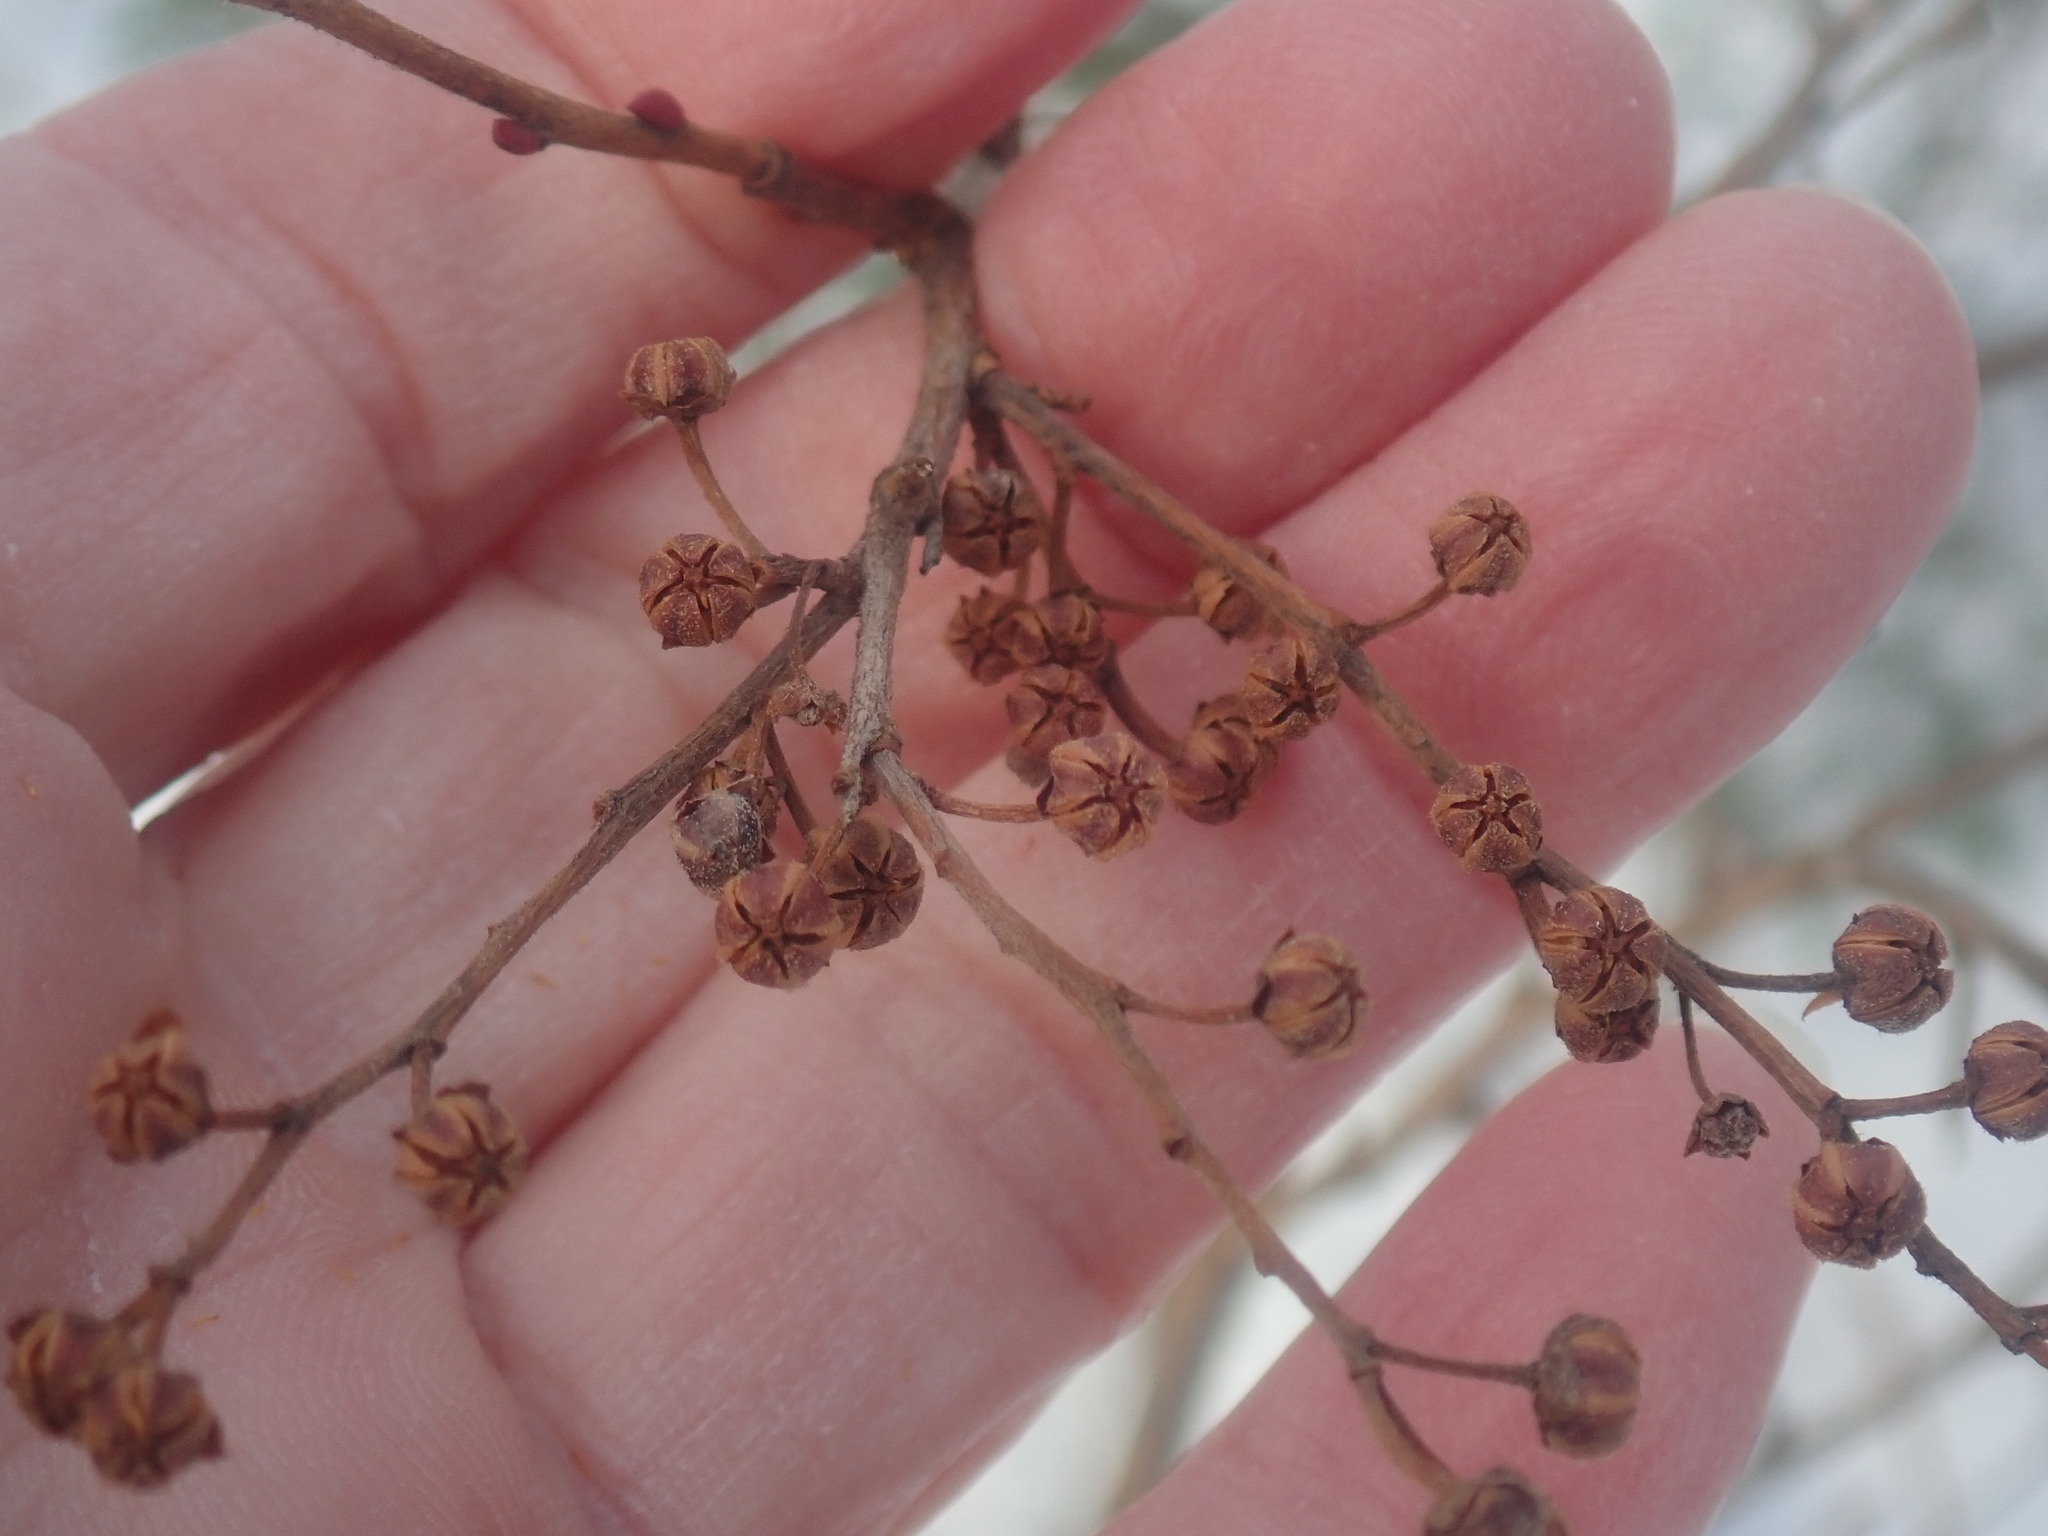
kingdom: Plantae
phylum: Tracheophyta
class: Magnoliopsida
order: Ericales
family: Ericaceae
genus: Lyonia
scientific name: Lyonia ligustrina
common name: Maleberry
